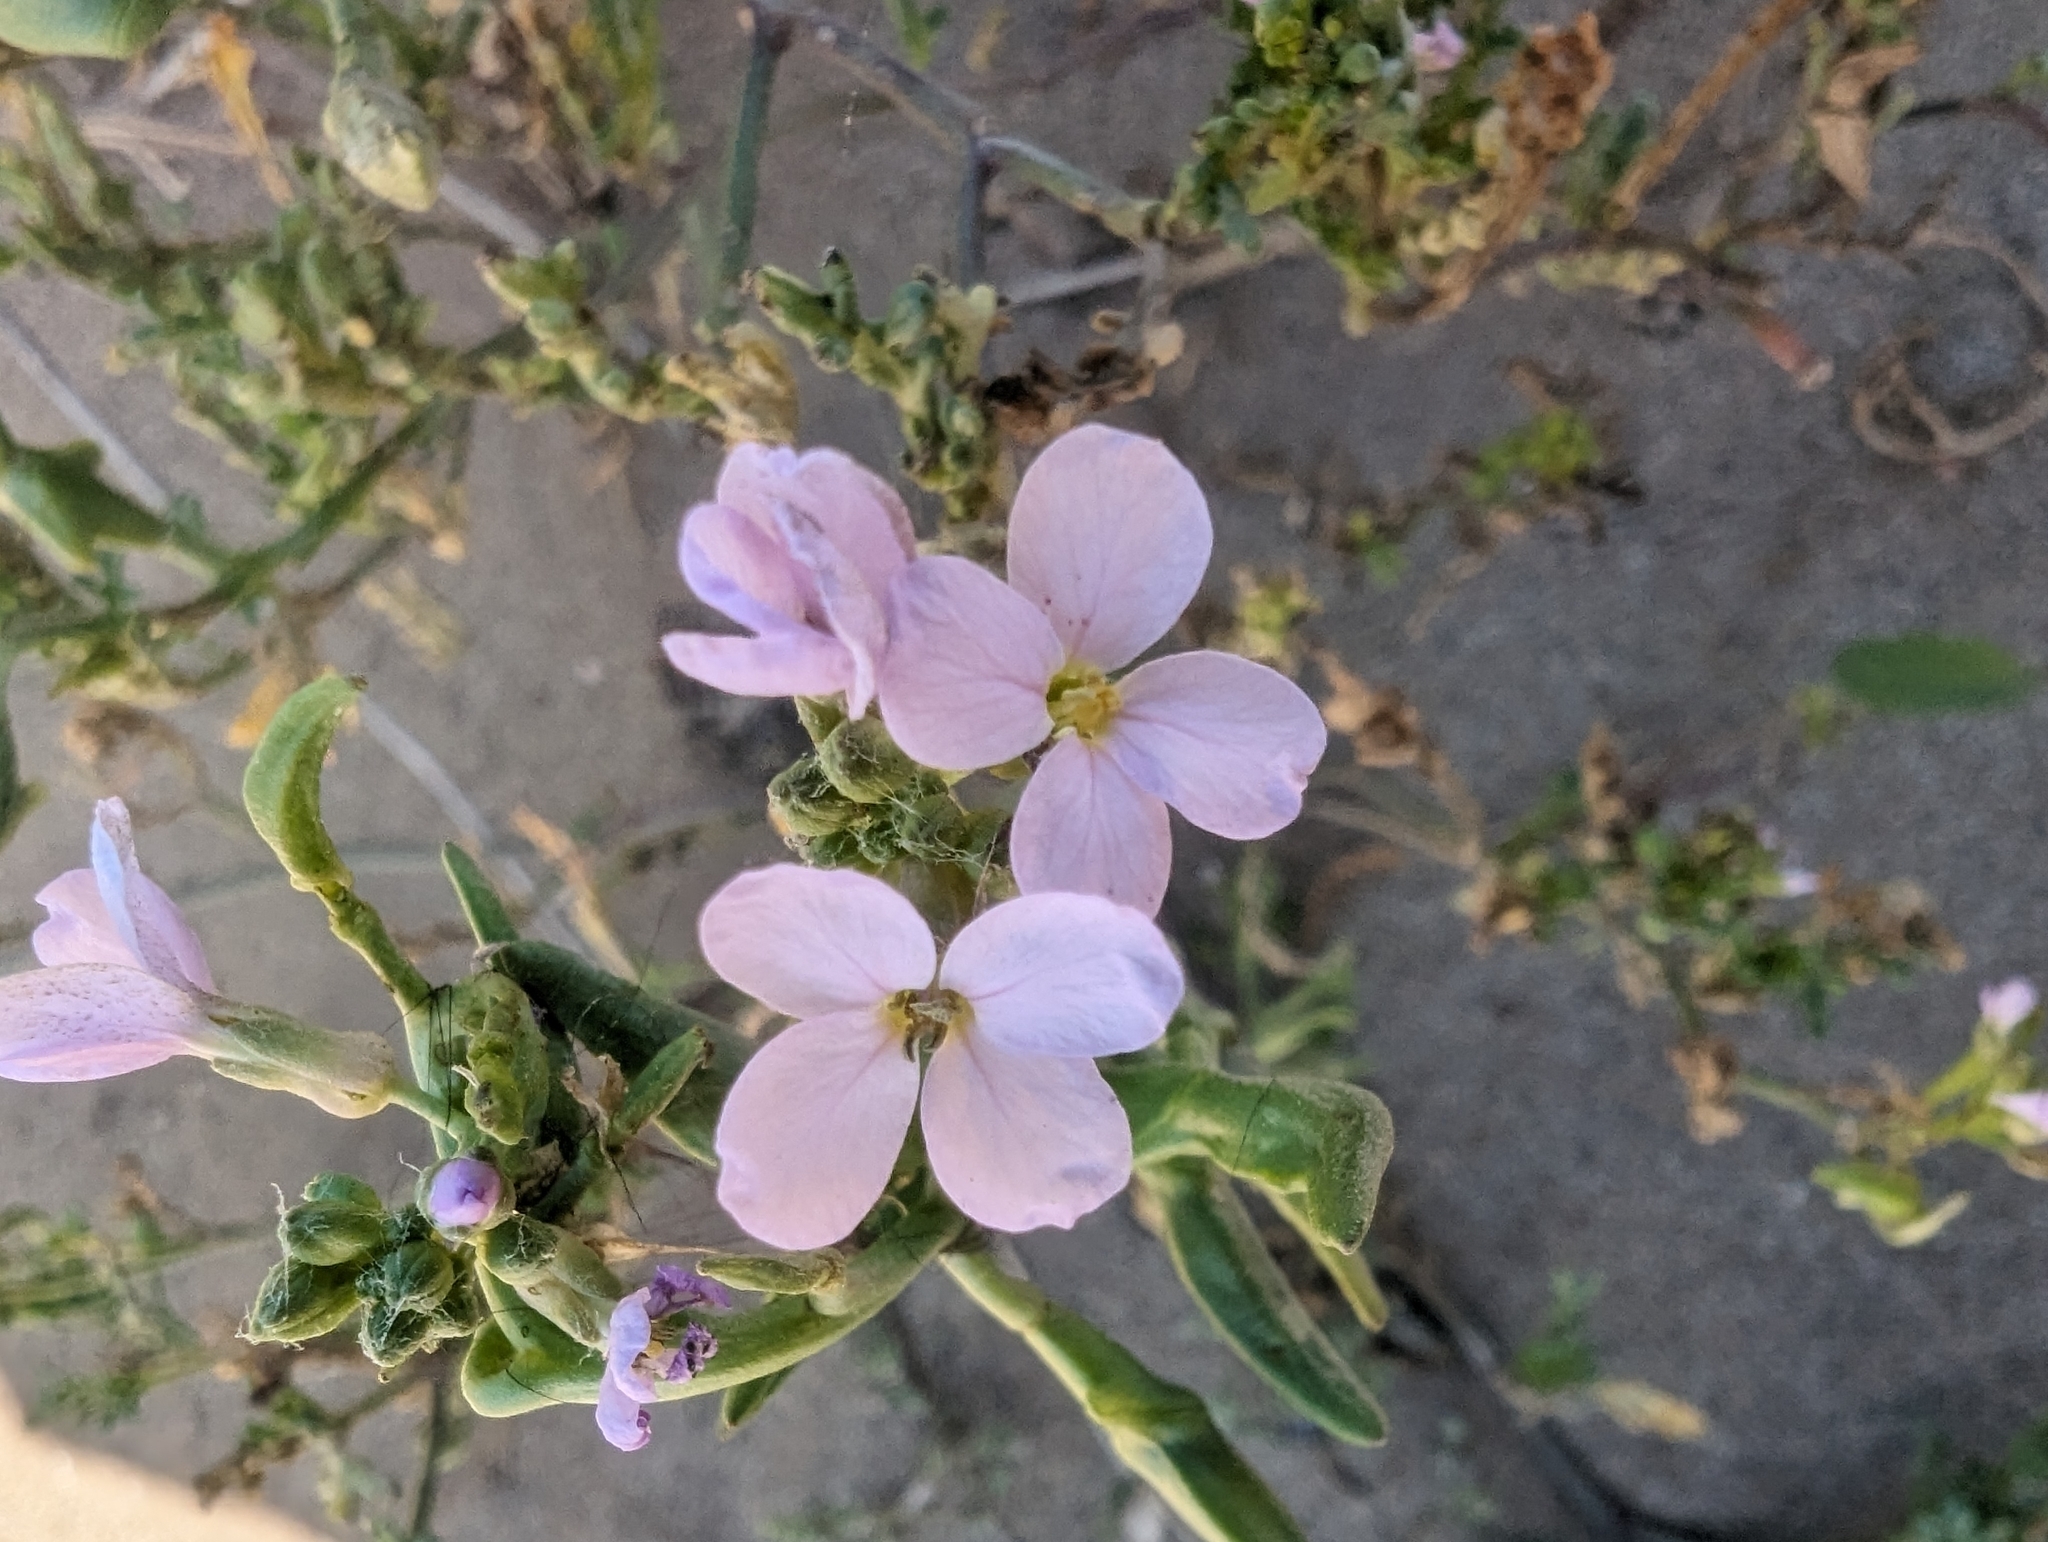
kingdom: Plantae
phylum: Tracheophyta
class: Magnoliopsida
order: Brassicales
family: Brassicaceae
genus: Cakile
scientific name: Cakile maritima
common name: Sea rocket
